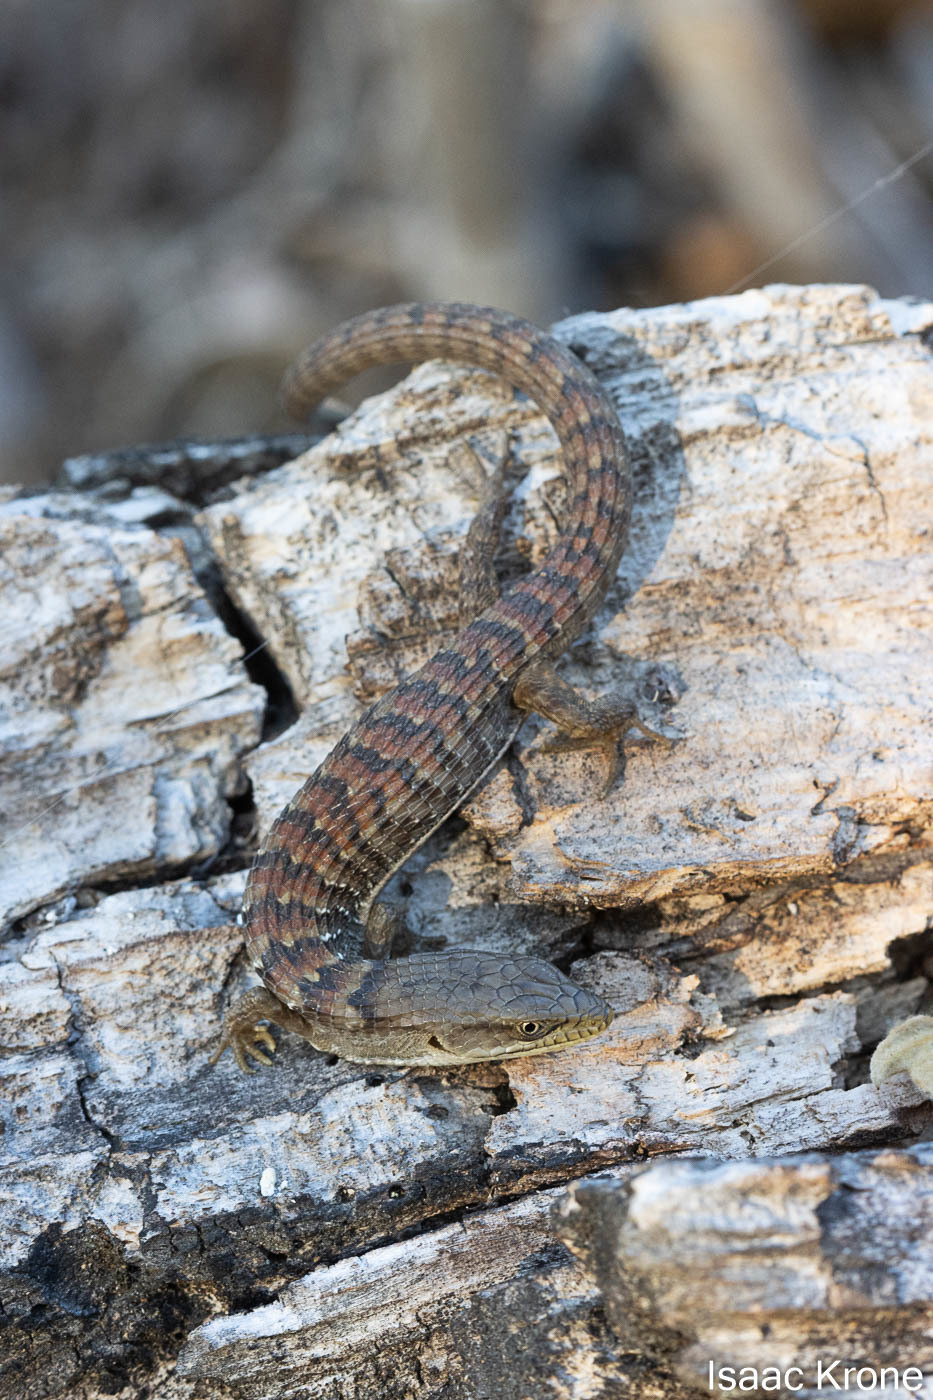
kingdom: Animalia
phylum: Chordata
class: Squamata
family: Anguidae
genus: Elgaria
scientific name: Elgaria multicarinata
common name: Southern alligator lizard
